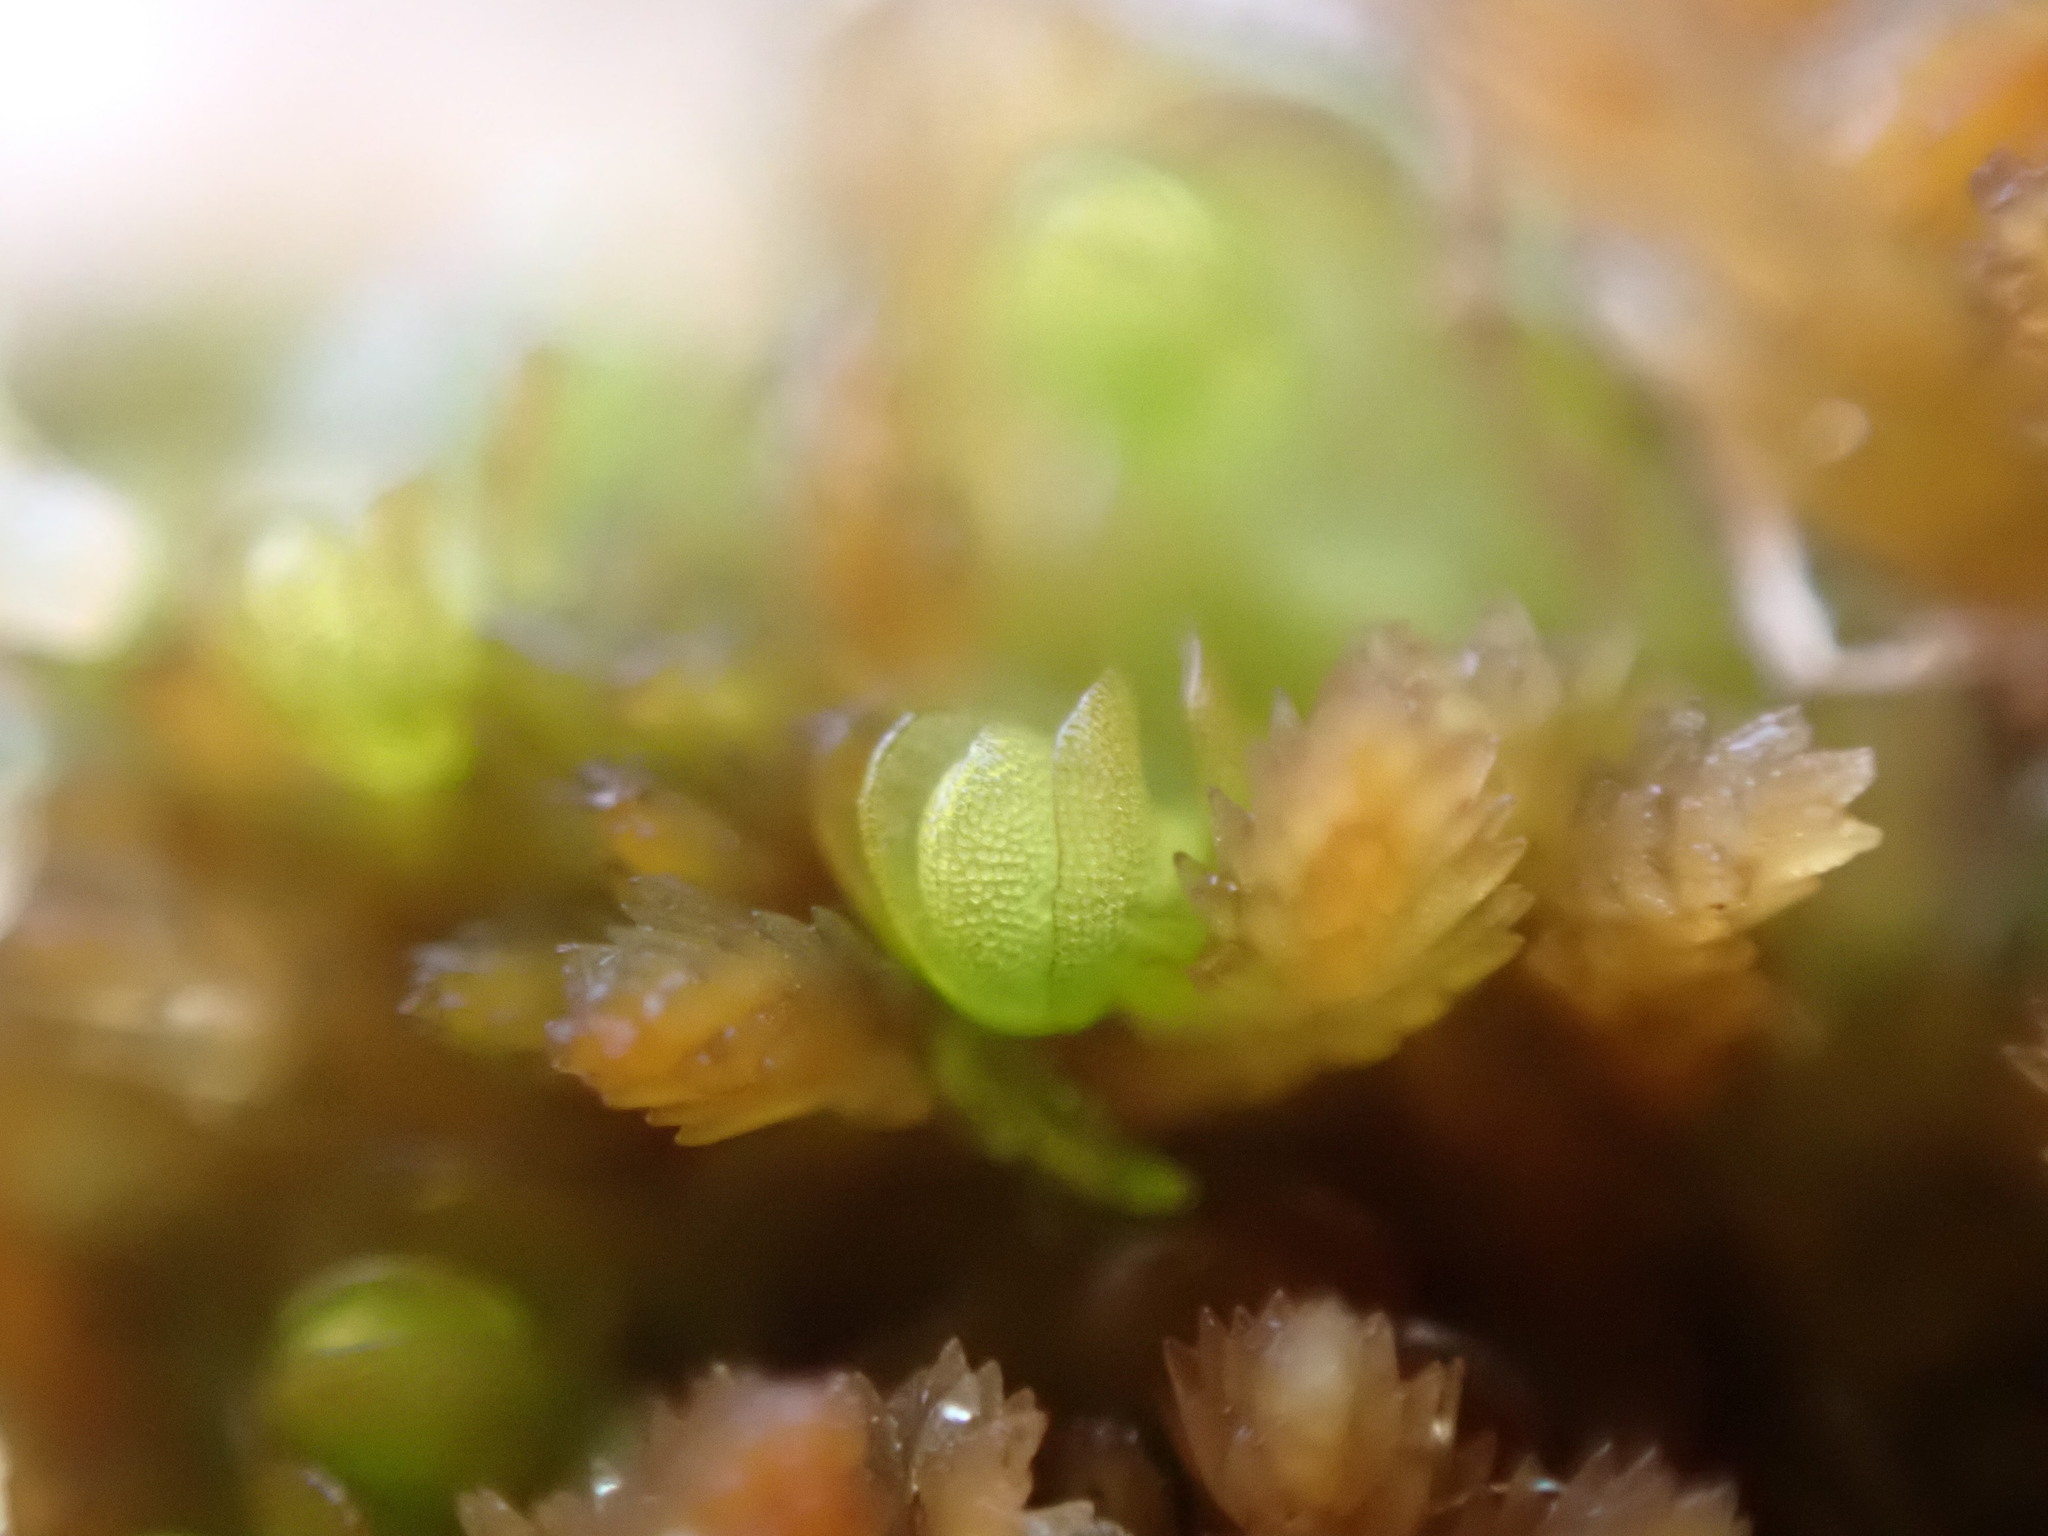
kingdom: Plantae
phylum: Marchantiophyta
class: Jungermanniopsida
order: Jungermanniales
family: Myliaceae
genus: Mylia
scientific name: Mylia anomala
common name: Anomalous flapwort
